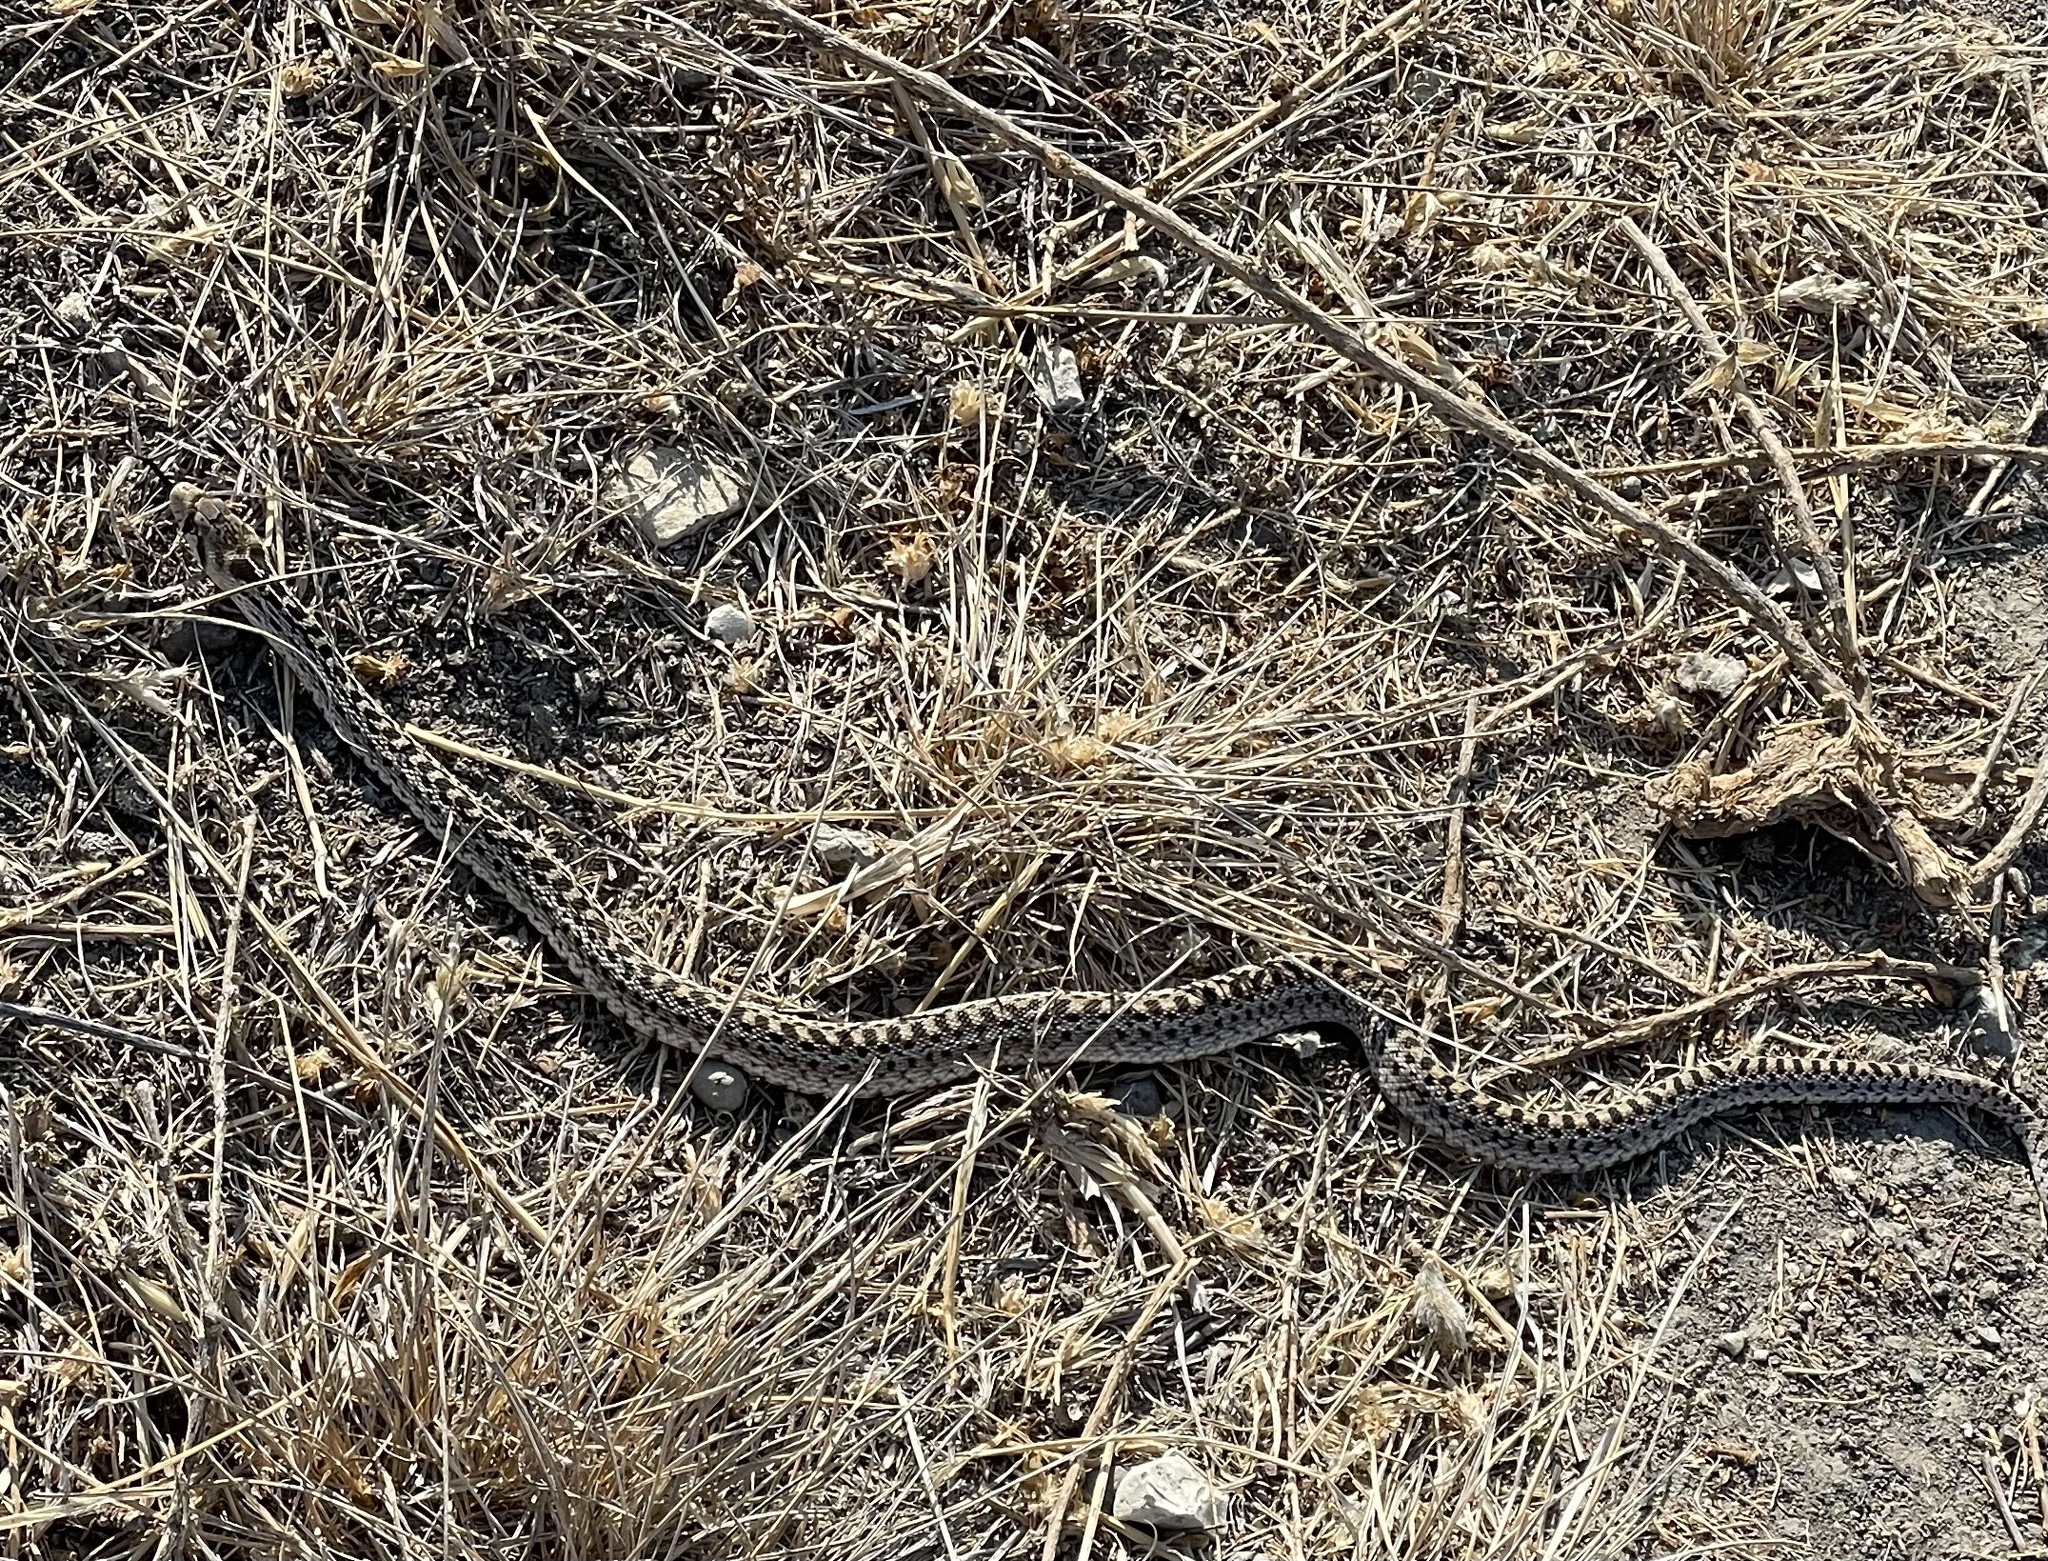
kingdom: Animalia
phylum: Chordata
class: Squamata
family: Colubridae
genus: Pituophis
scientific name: Pituophis catenifer
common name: Gopher snake
